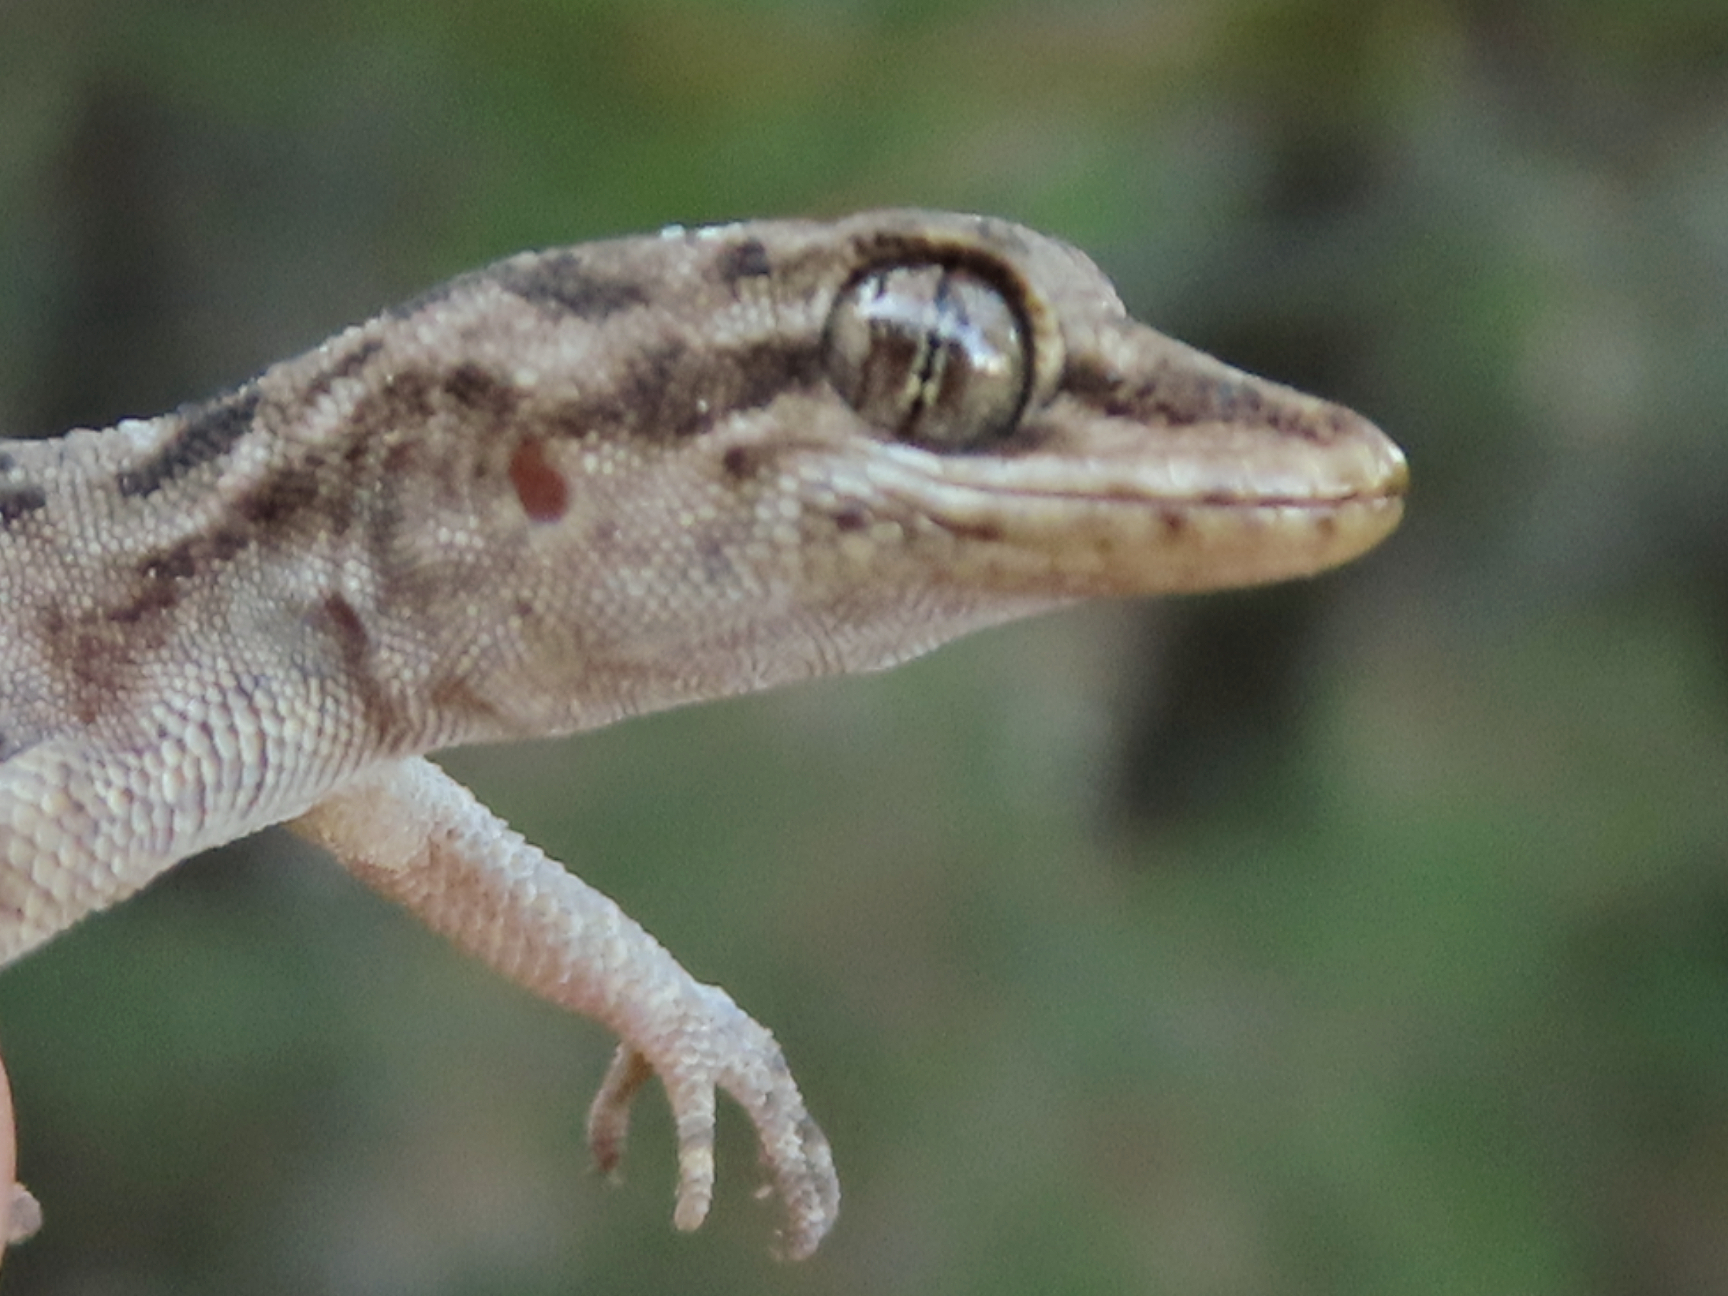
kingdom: Animalia
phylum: Chordata
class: Squamata
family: Gekkonidae
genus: Mediodactylus
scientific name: Mediodactylus oertzeni
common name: Mediterranean thin-toed gecko
